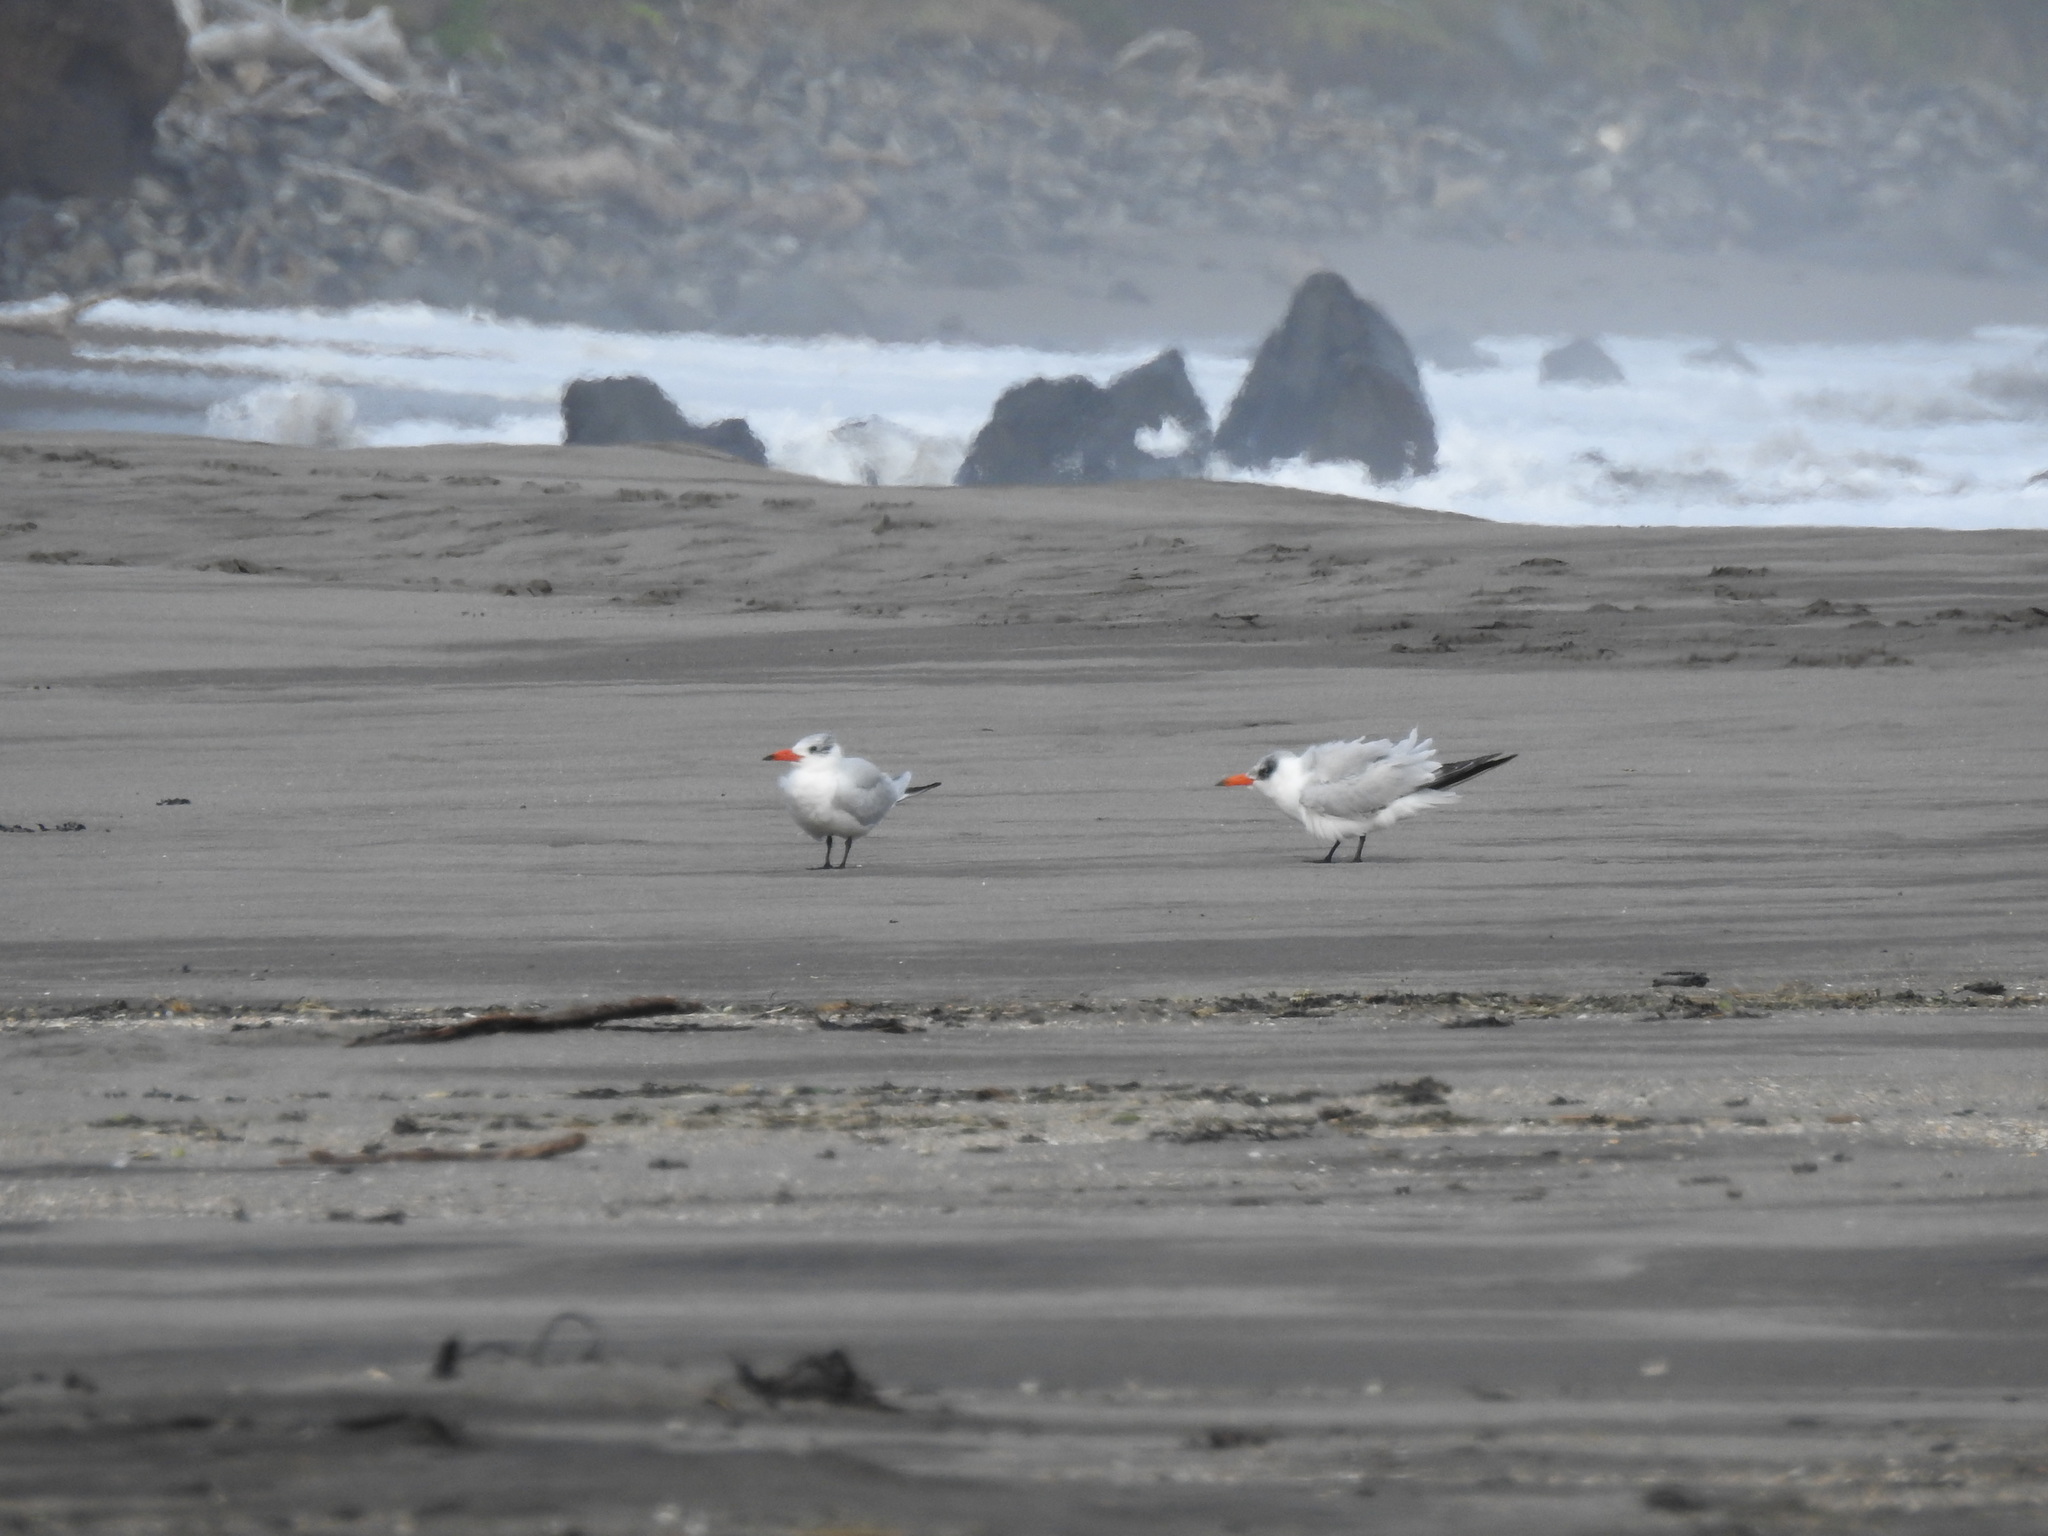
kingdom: Animalia
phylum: Chordata
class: Aves
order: Charadriiformes
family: Laridae
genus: Hydroprogne
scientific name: Hydroprogne caspia
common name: Caspian tern
